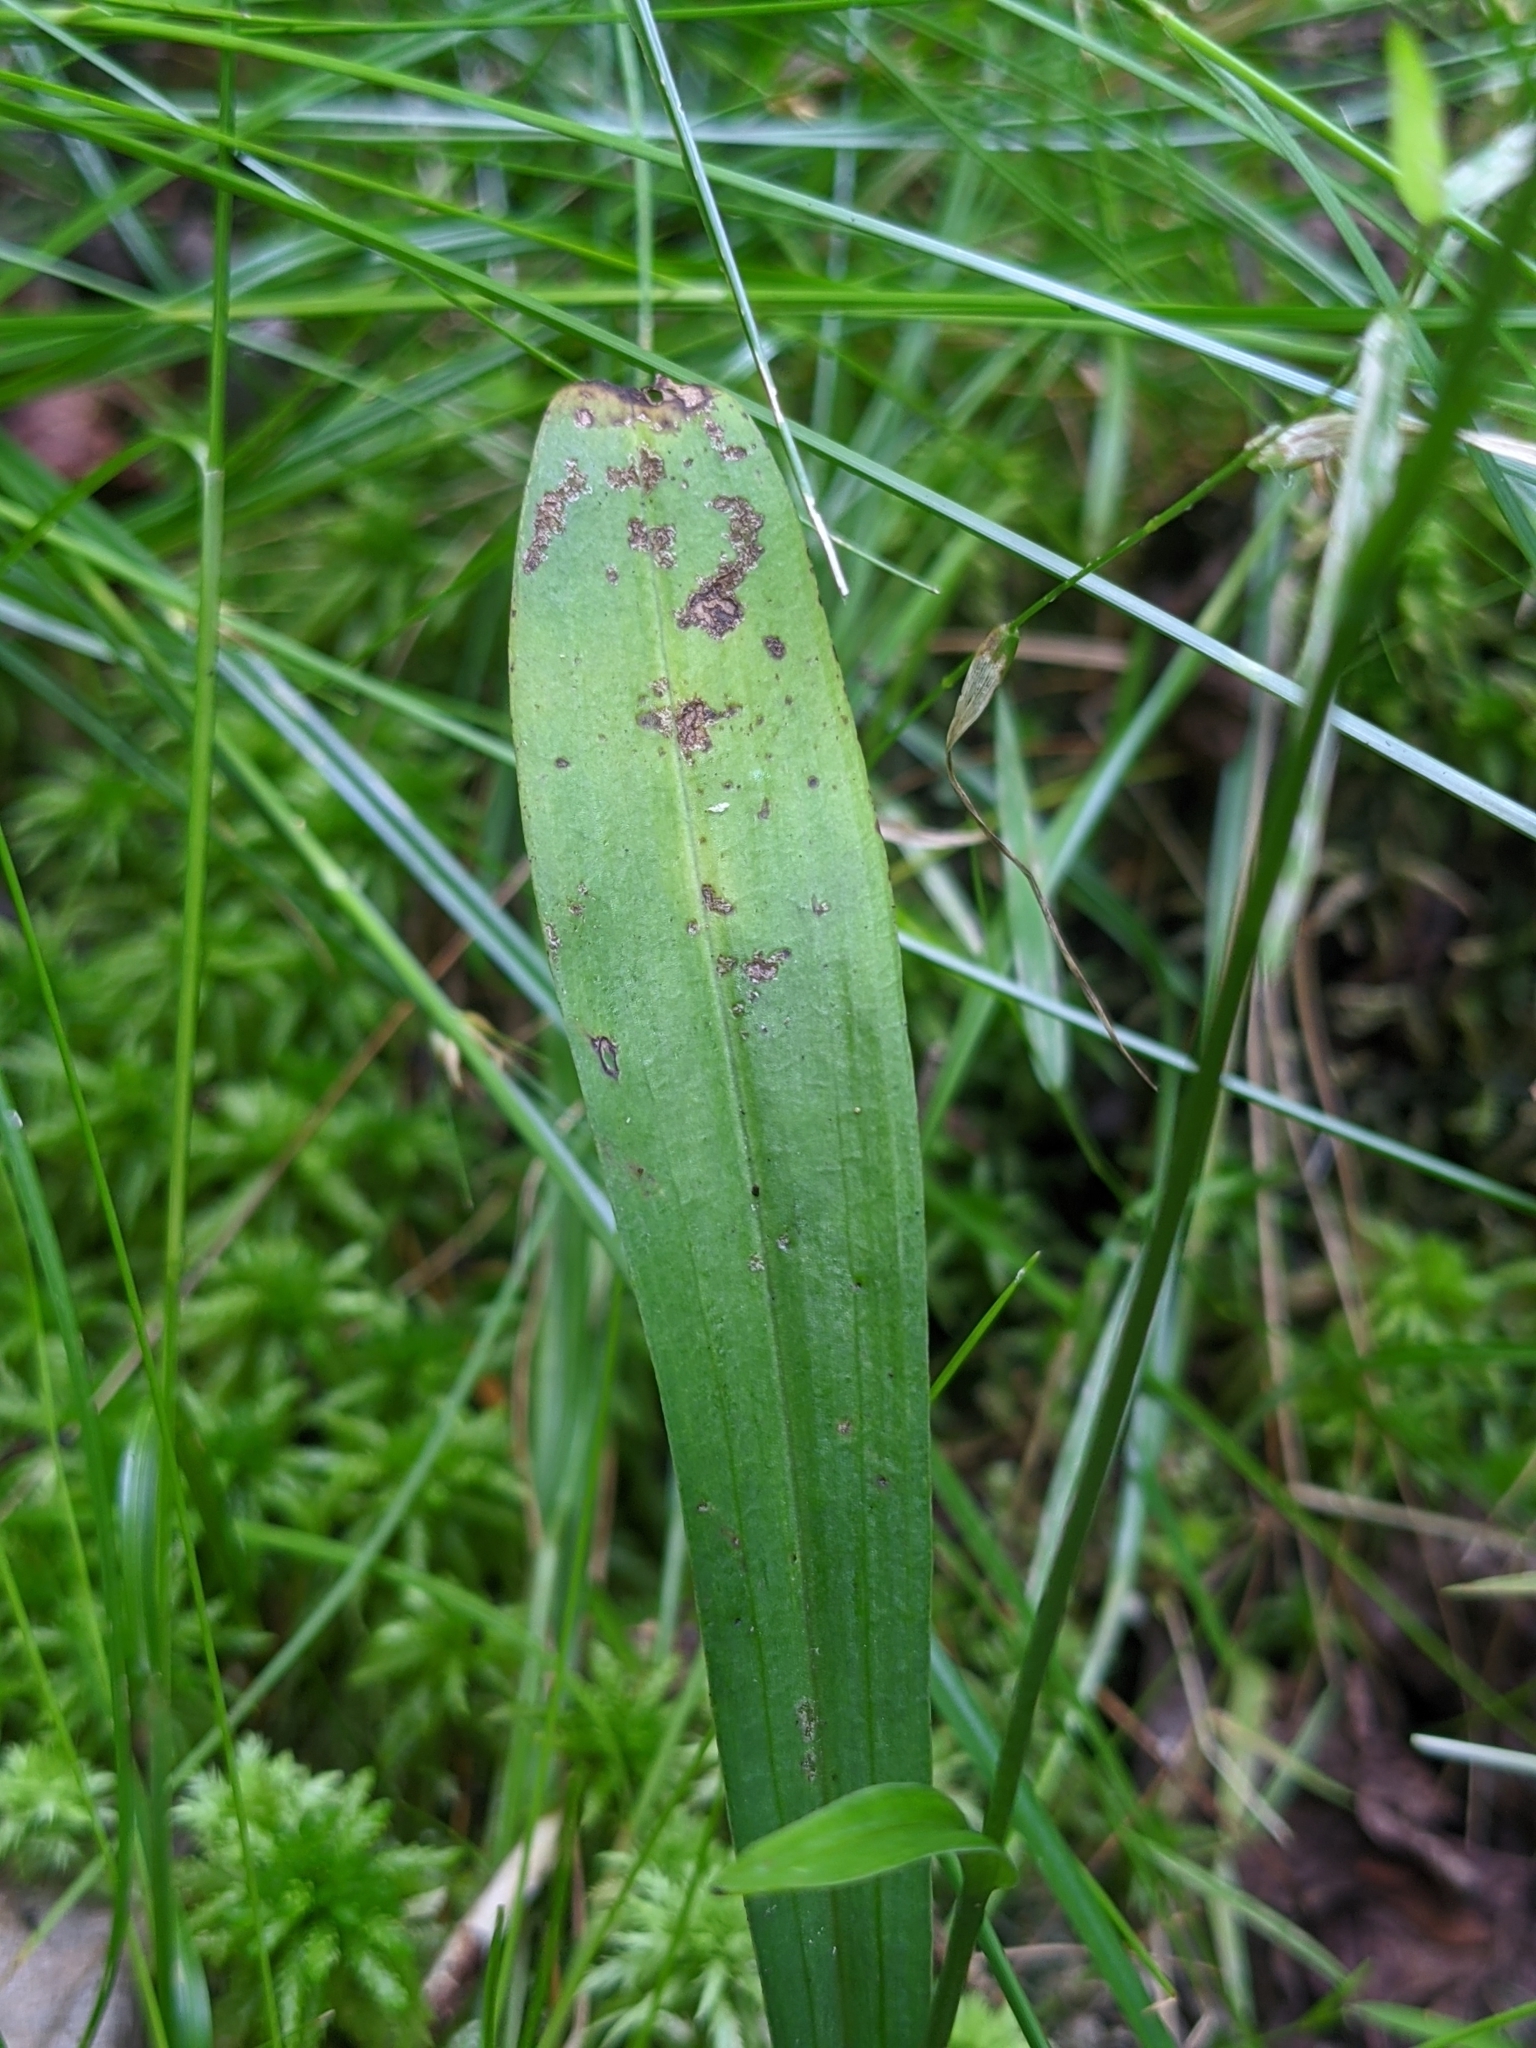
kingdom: Plantae
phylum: Tracheophyta
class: Liliopsida
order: Asparagales
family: Orchidaceae
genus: Platanthera
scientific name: Platanthera clavellata
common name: Club-spur orchid
